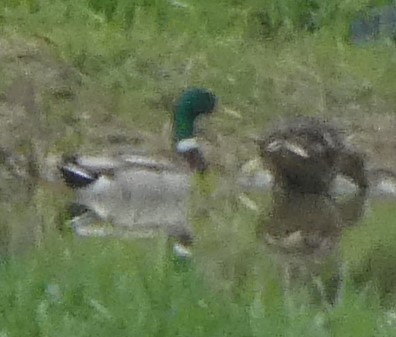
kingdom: Animalia
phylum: Chordata
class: Aves
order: Anseriformes
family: Anatidae
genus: Anas
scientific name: Anas platyrhynchos
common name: Mallard
